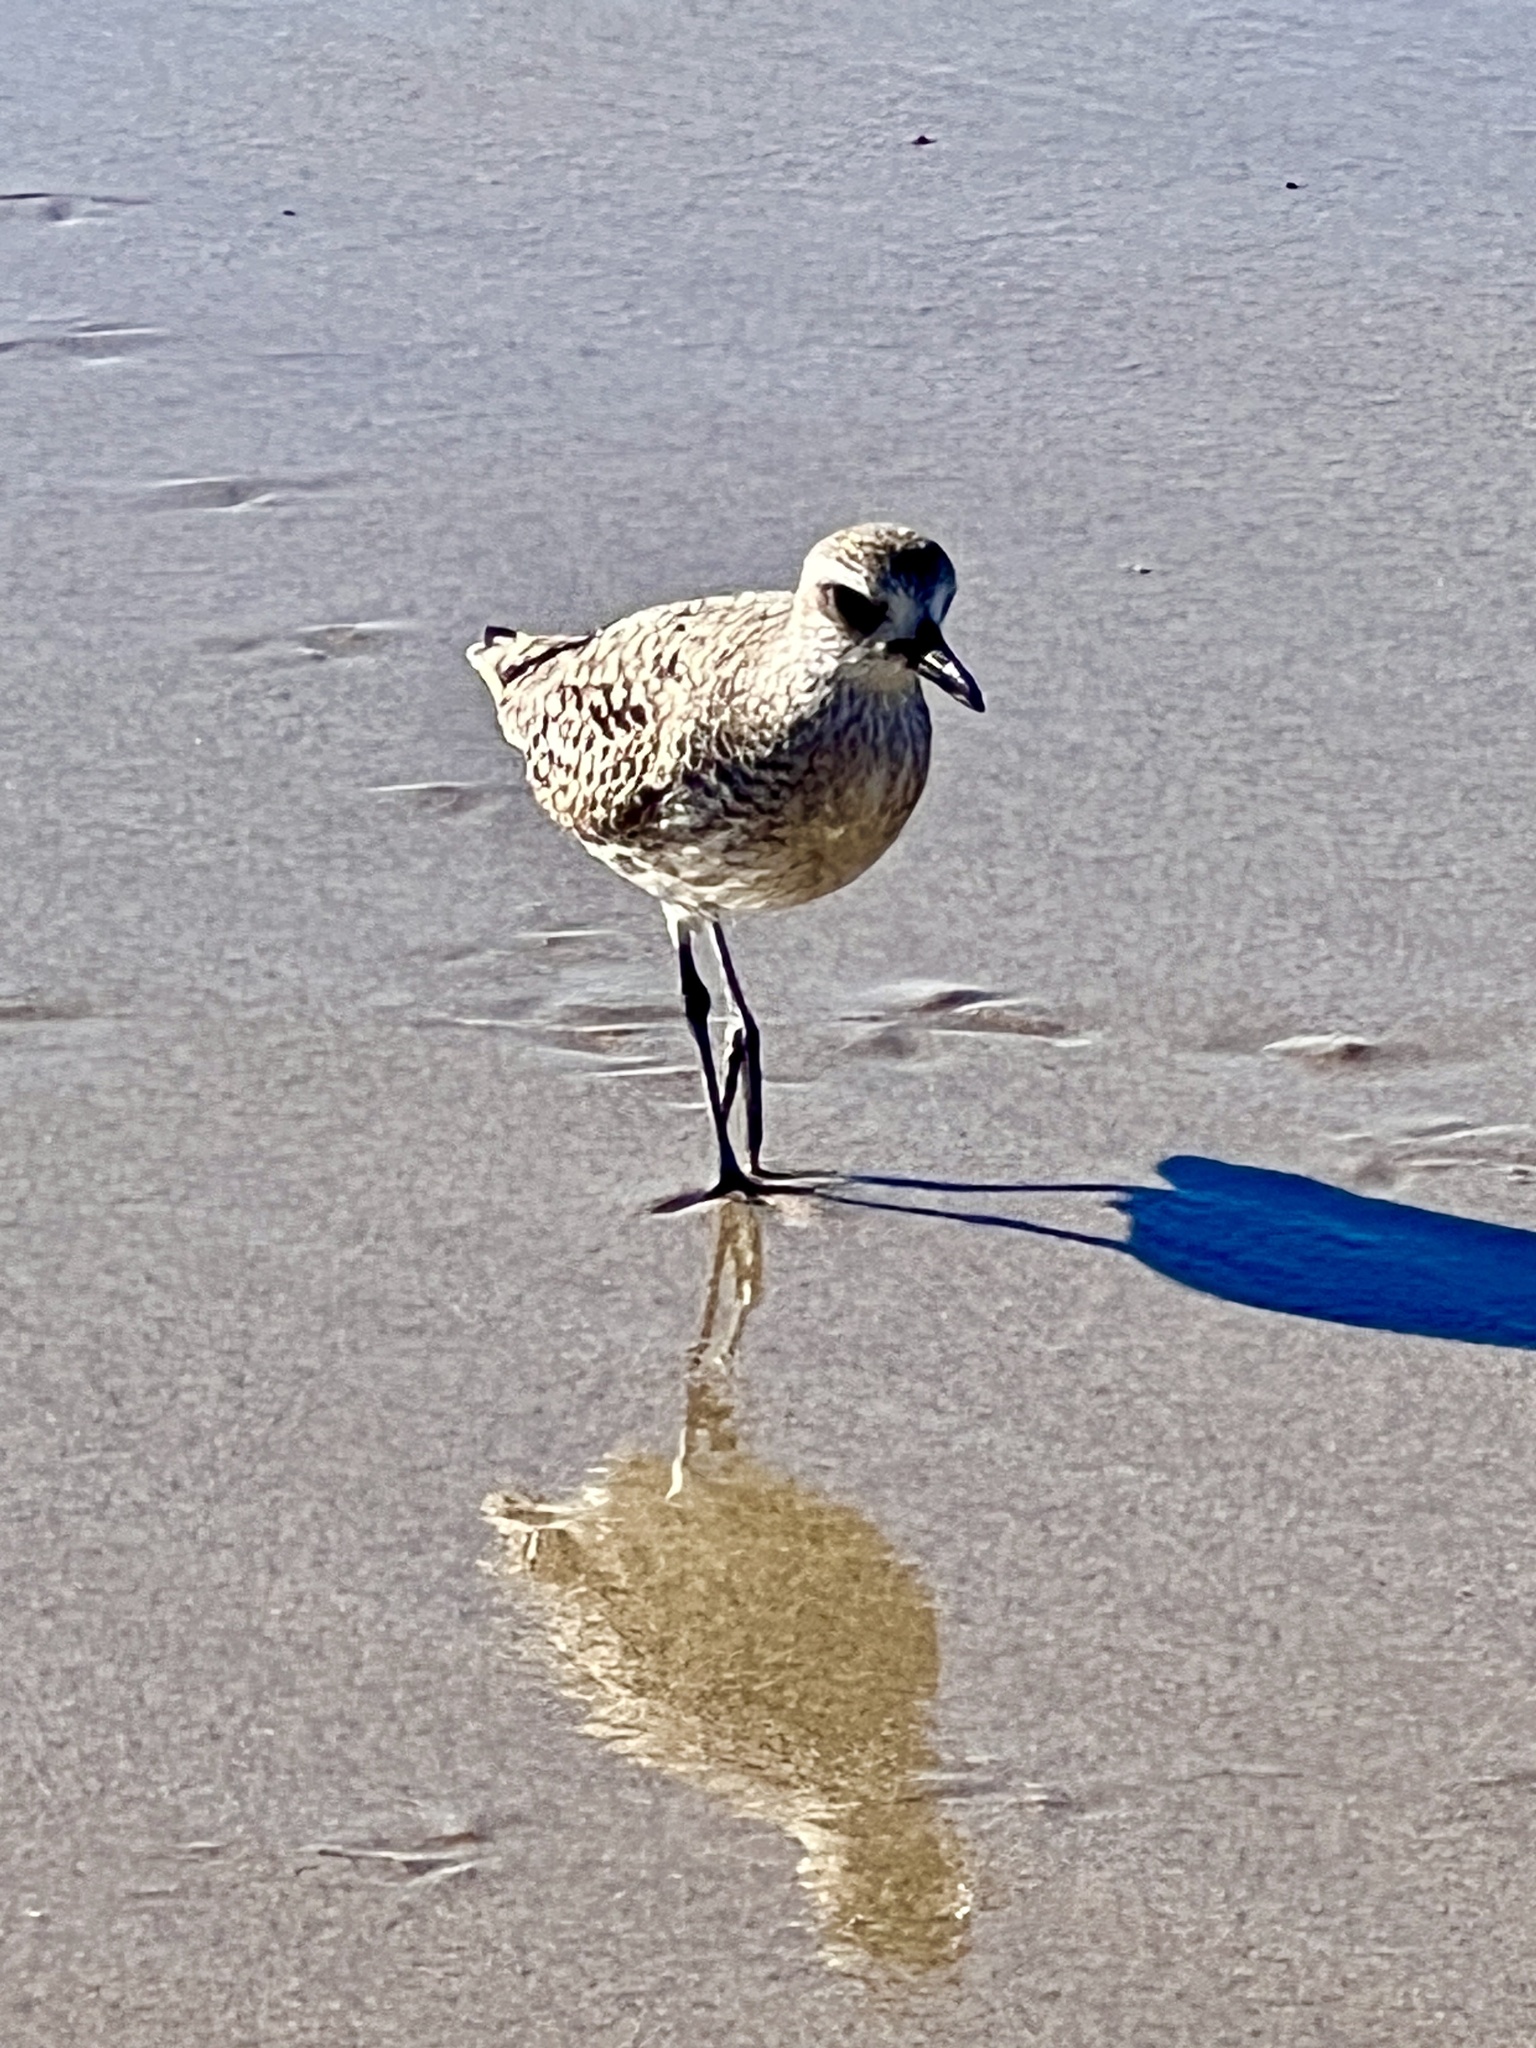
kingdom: Animalia
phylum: Chordata
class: Aves
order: Charadriiformes
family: Charadriidae
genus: Pluvialis
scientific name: Pluvialis squatarola
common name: Grey plover
